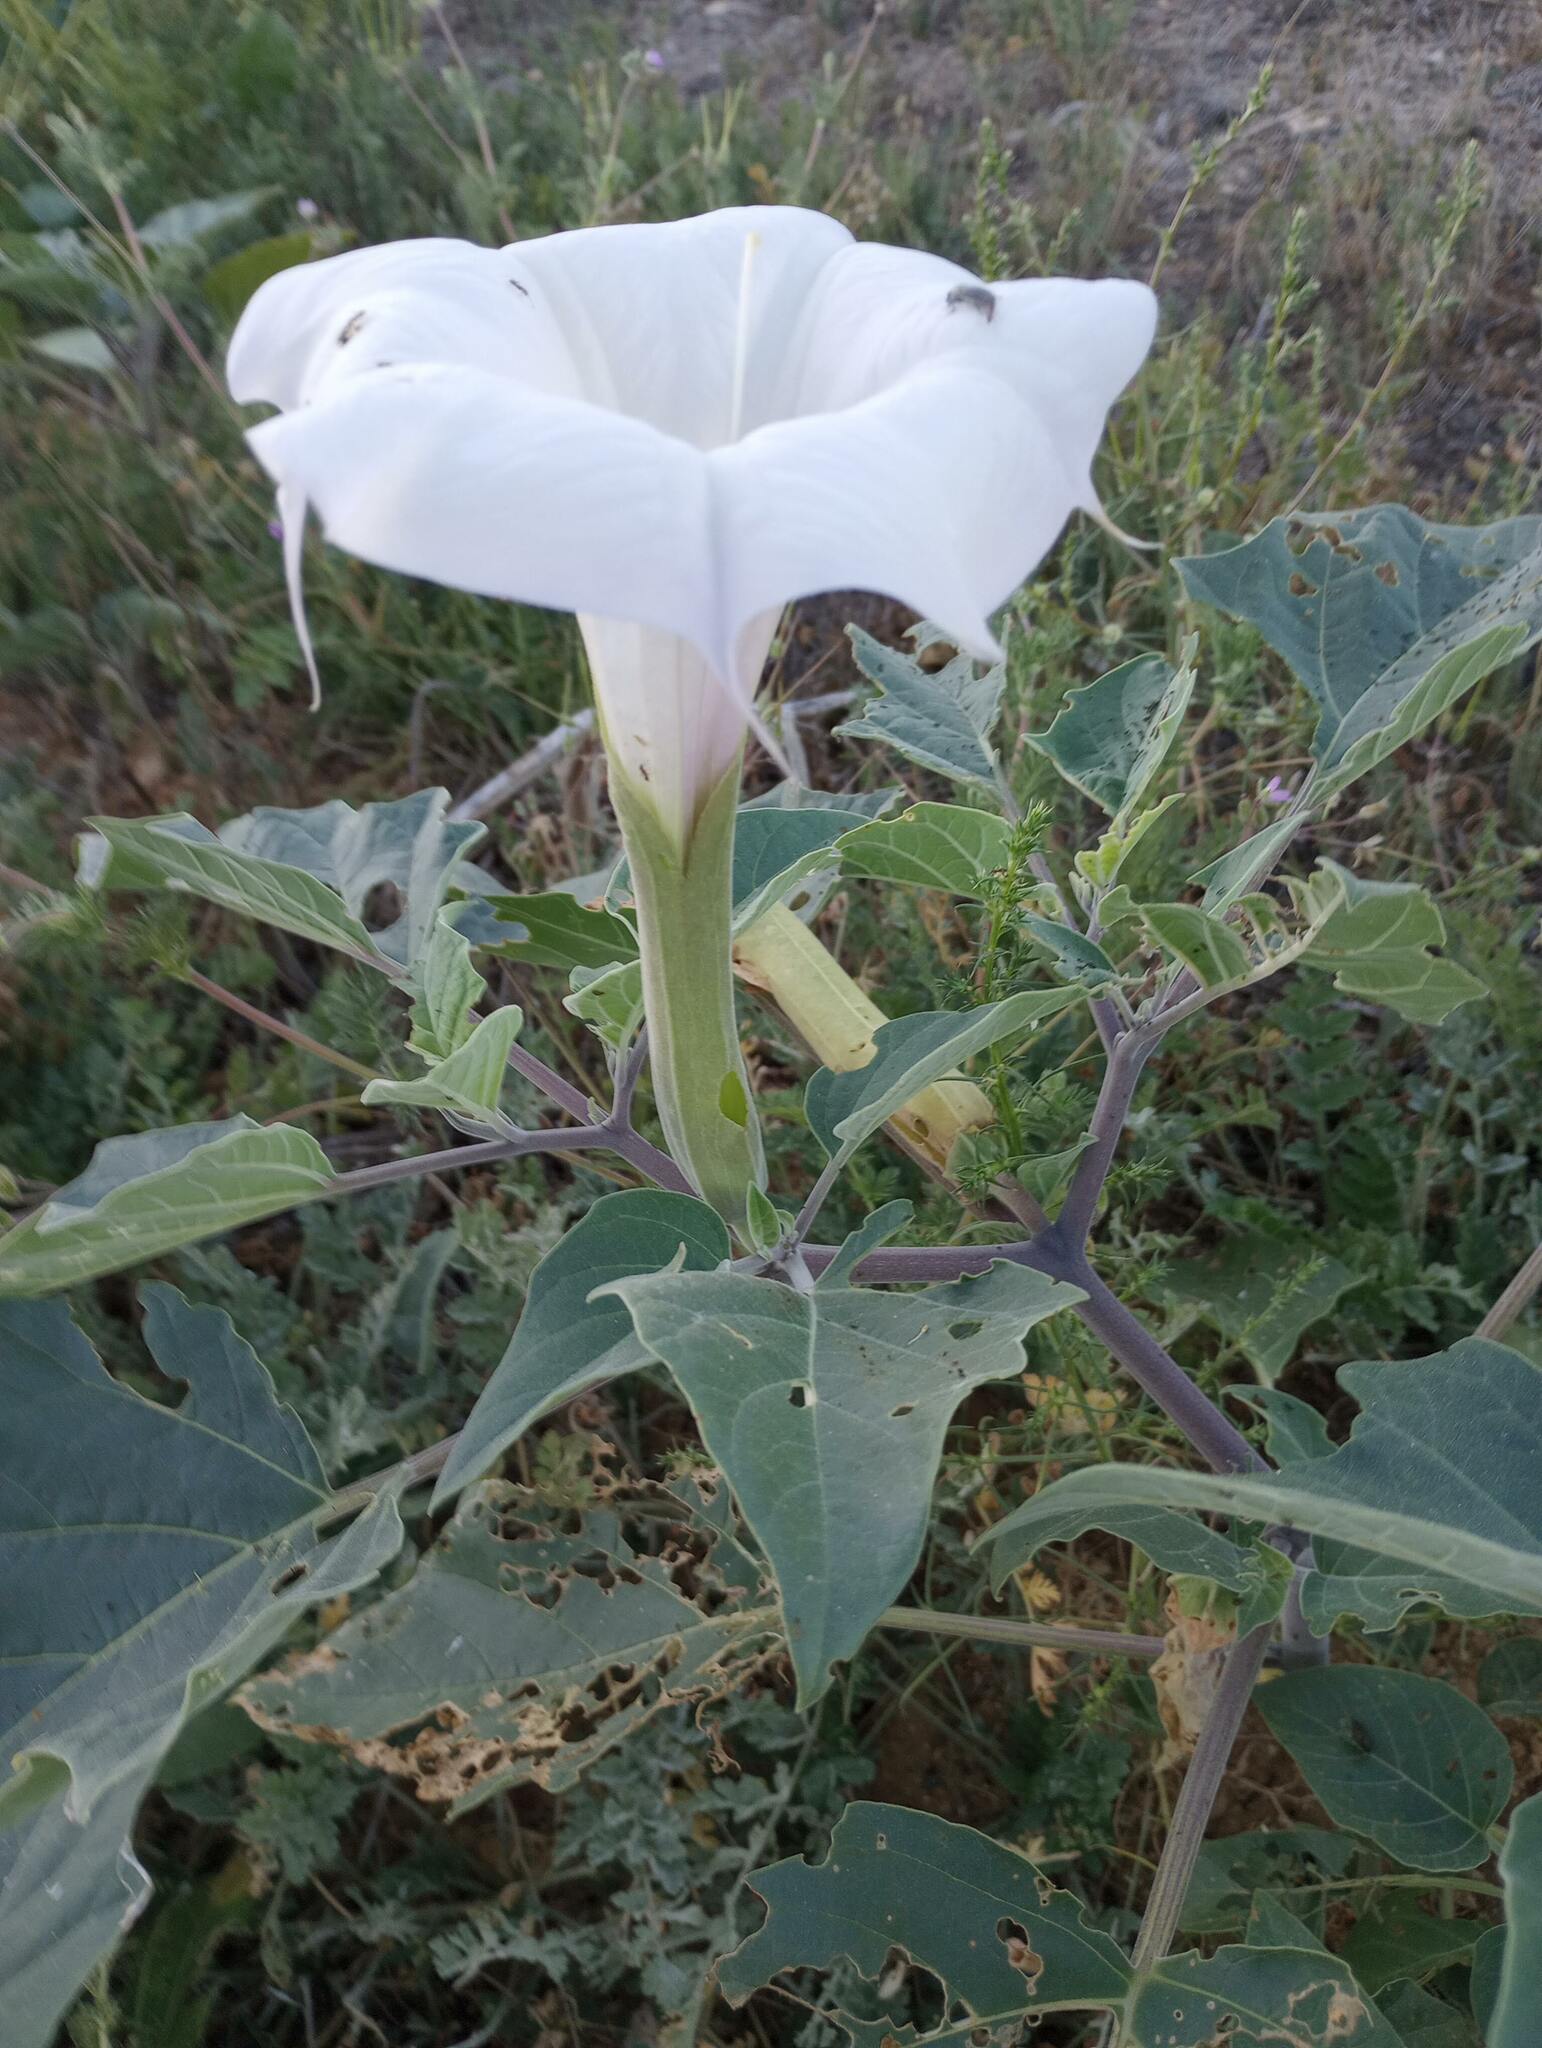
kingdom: Plantae
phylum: Tracheophyta
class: Magnoliopsida
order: Solanales
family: Solanaceae
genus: Datura
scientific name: Datura wrightii
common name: Sacred thorn-apple
